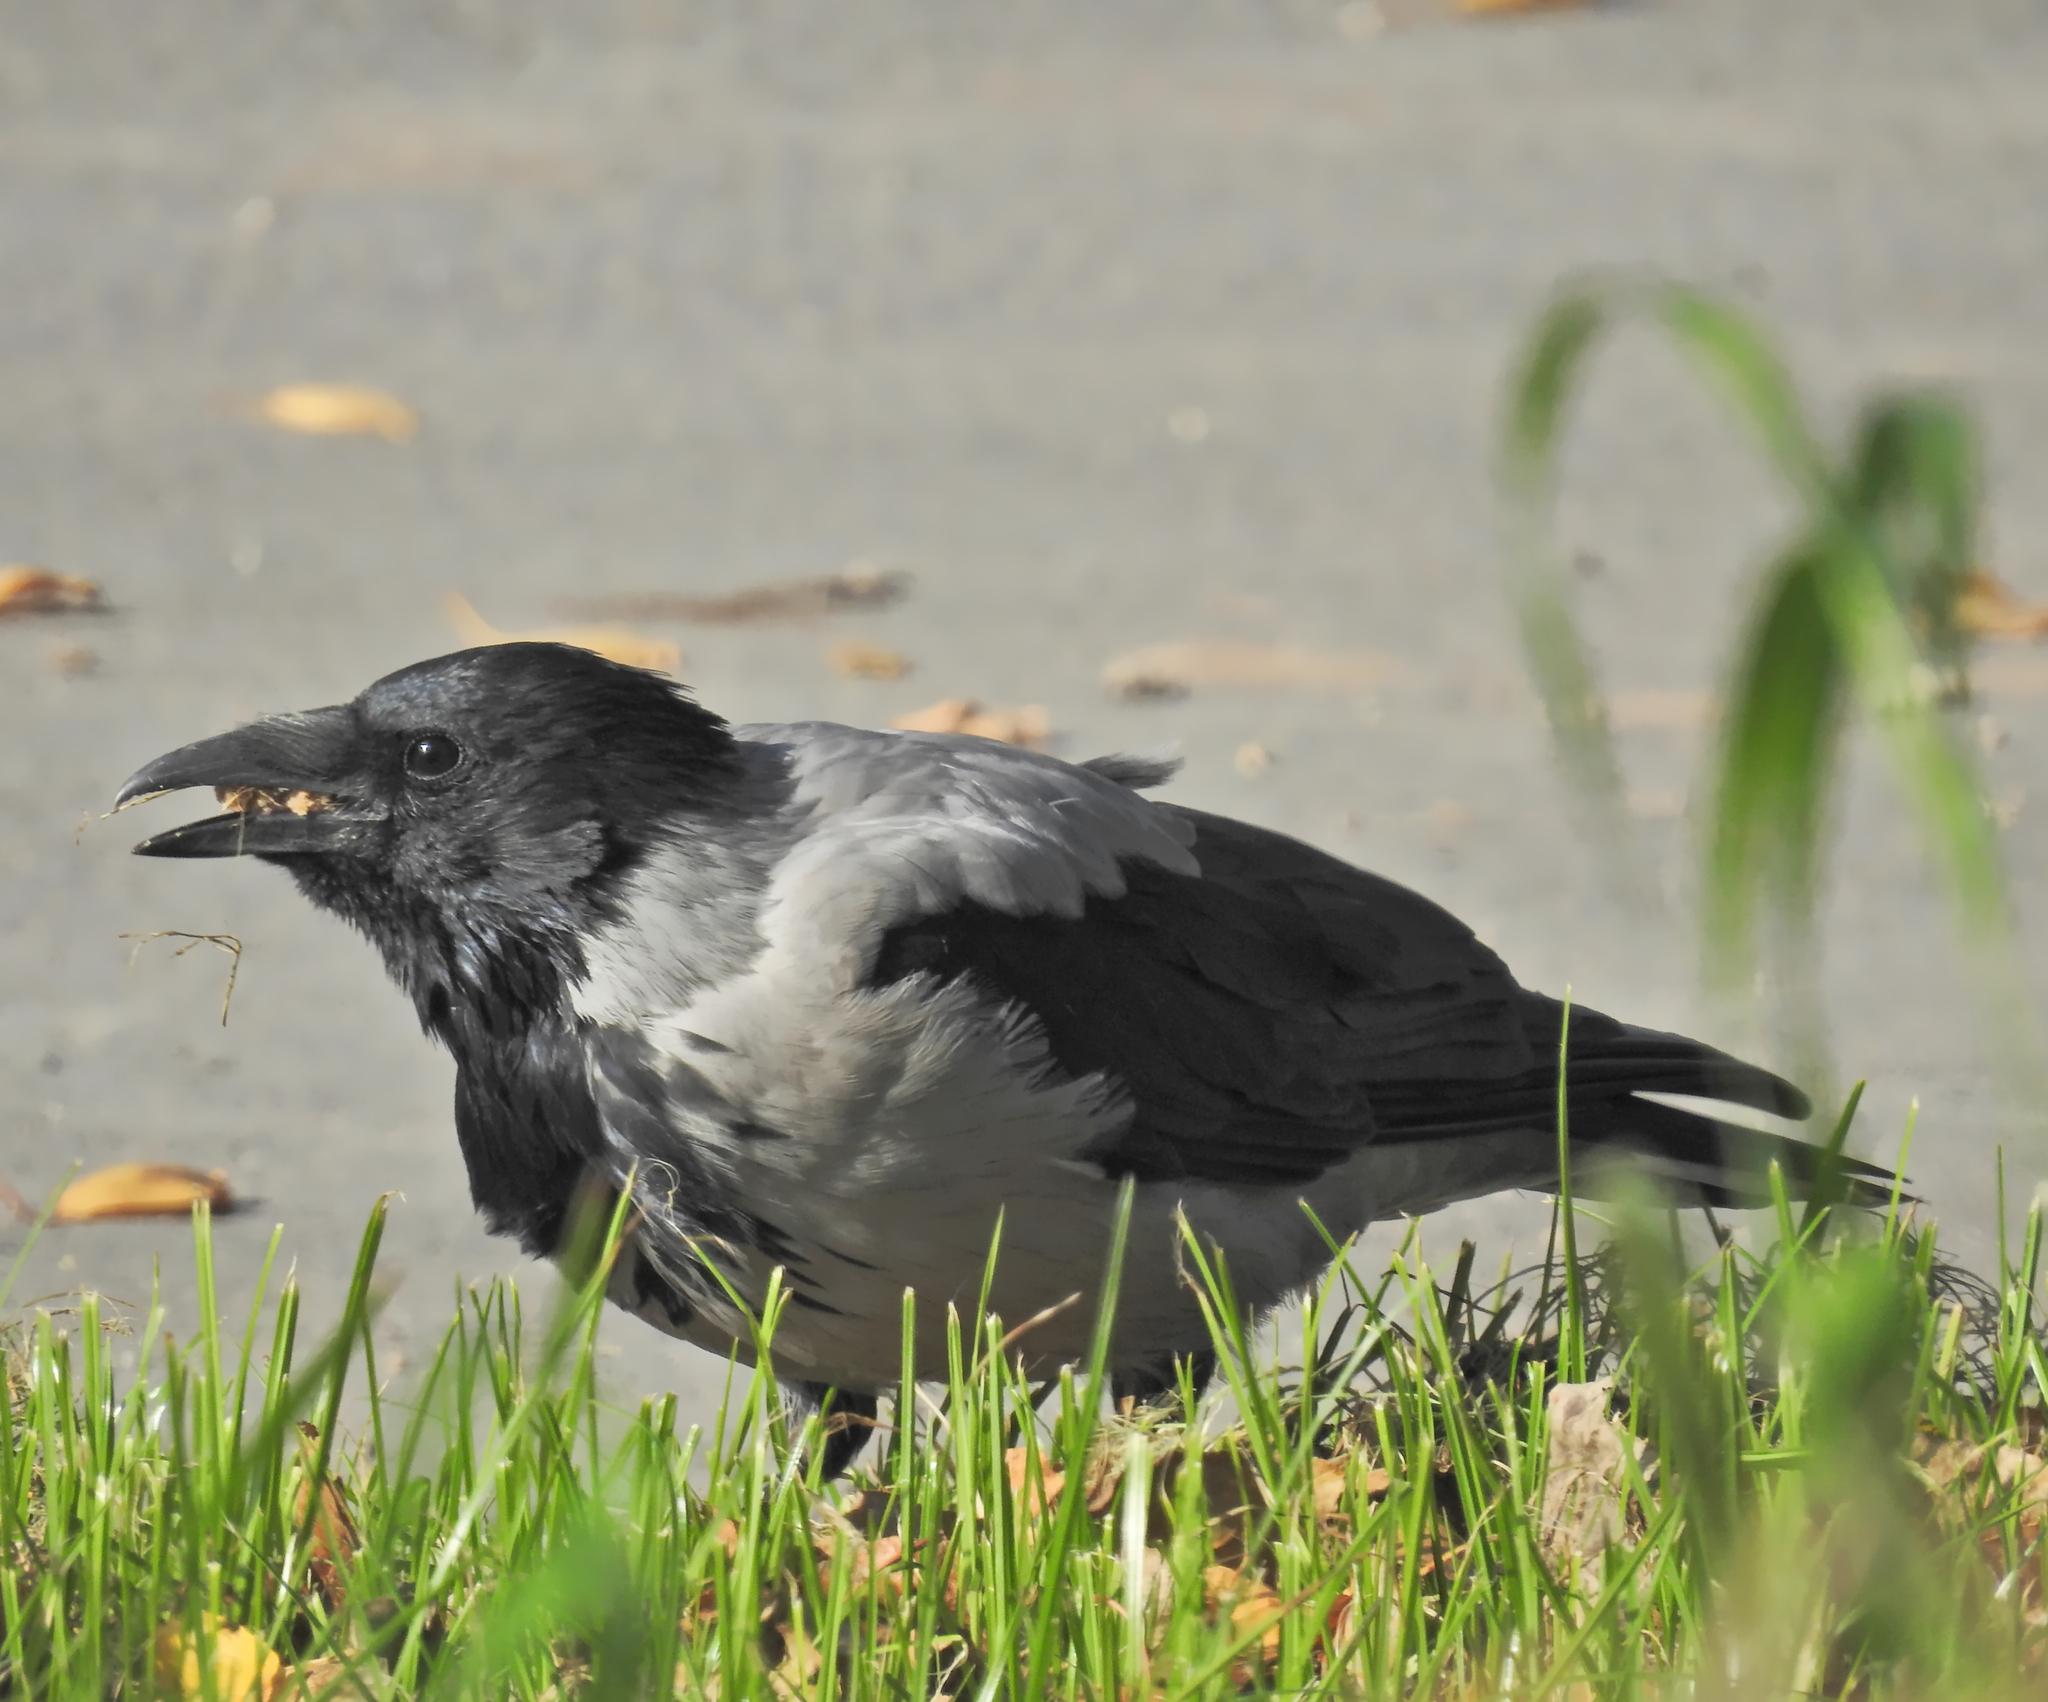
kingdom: Animalia
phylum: Chordata
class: Aves
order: Passeriformes
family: Corvidae
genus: Corvus
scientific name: Corvus cornix
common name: Hooded crow
